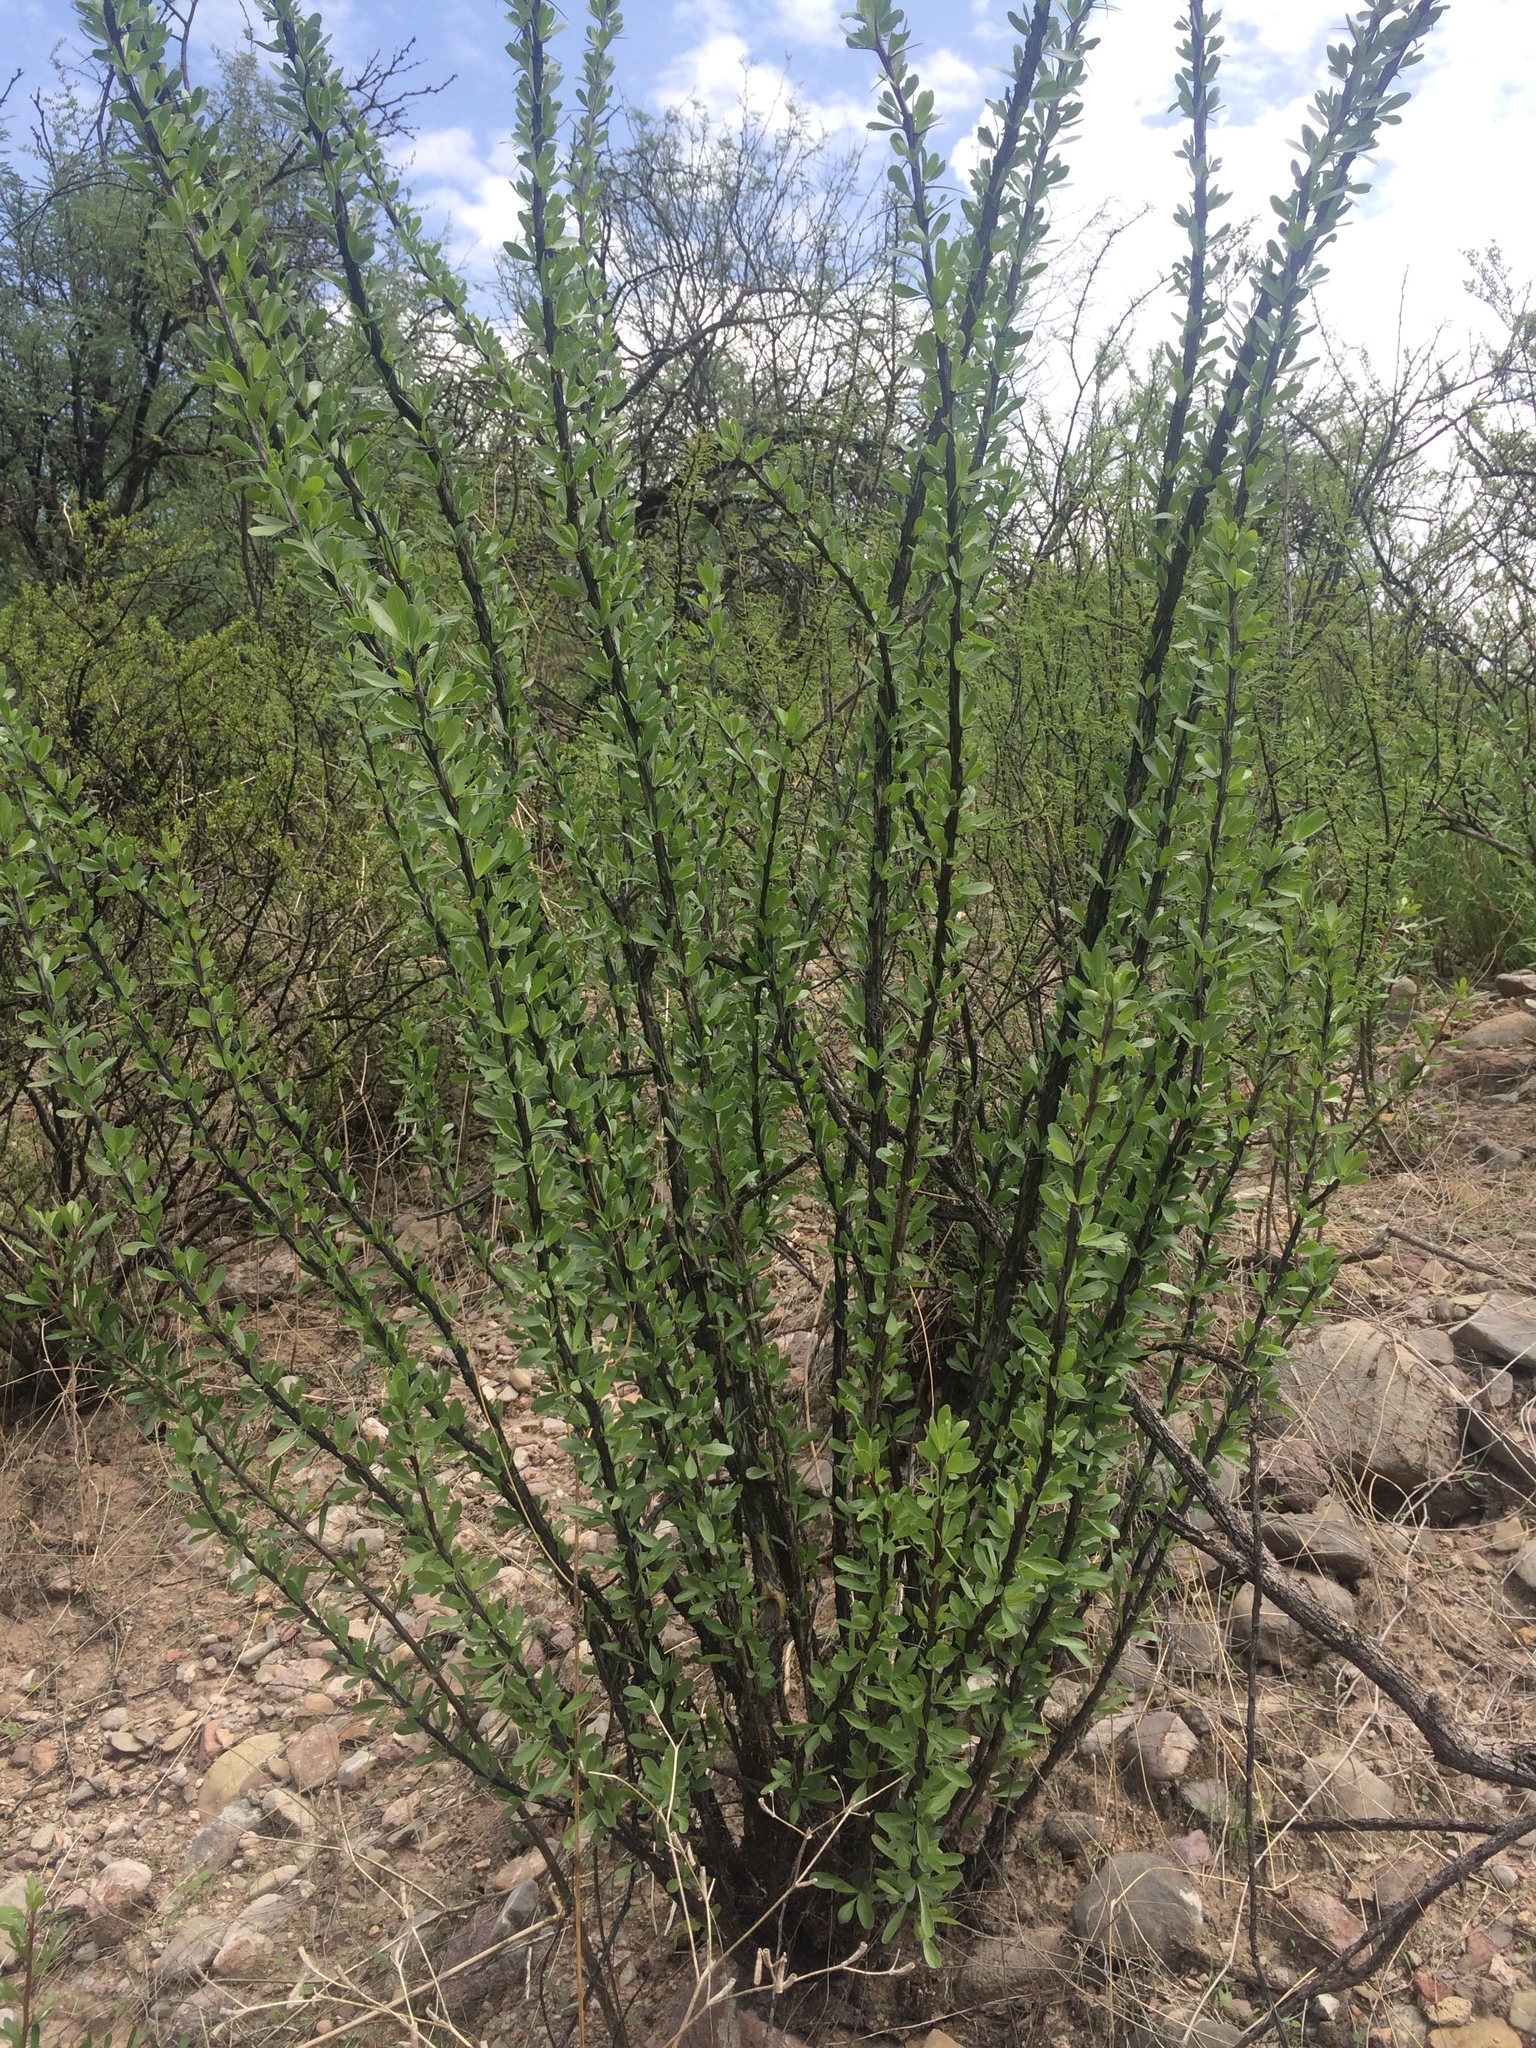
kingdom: Plantae
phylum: Tracheophyta
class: Magnoliopsida
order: Ericales
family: Fouquieriaceae
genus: Fouquieria
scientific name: Fouquieria splendens
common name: Vine-cactus
